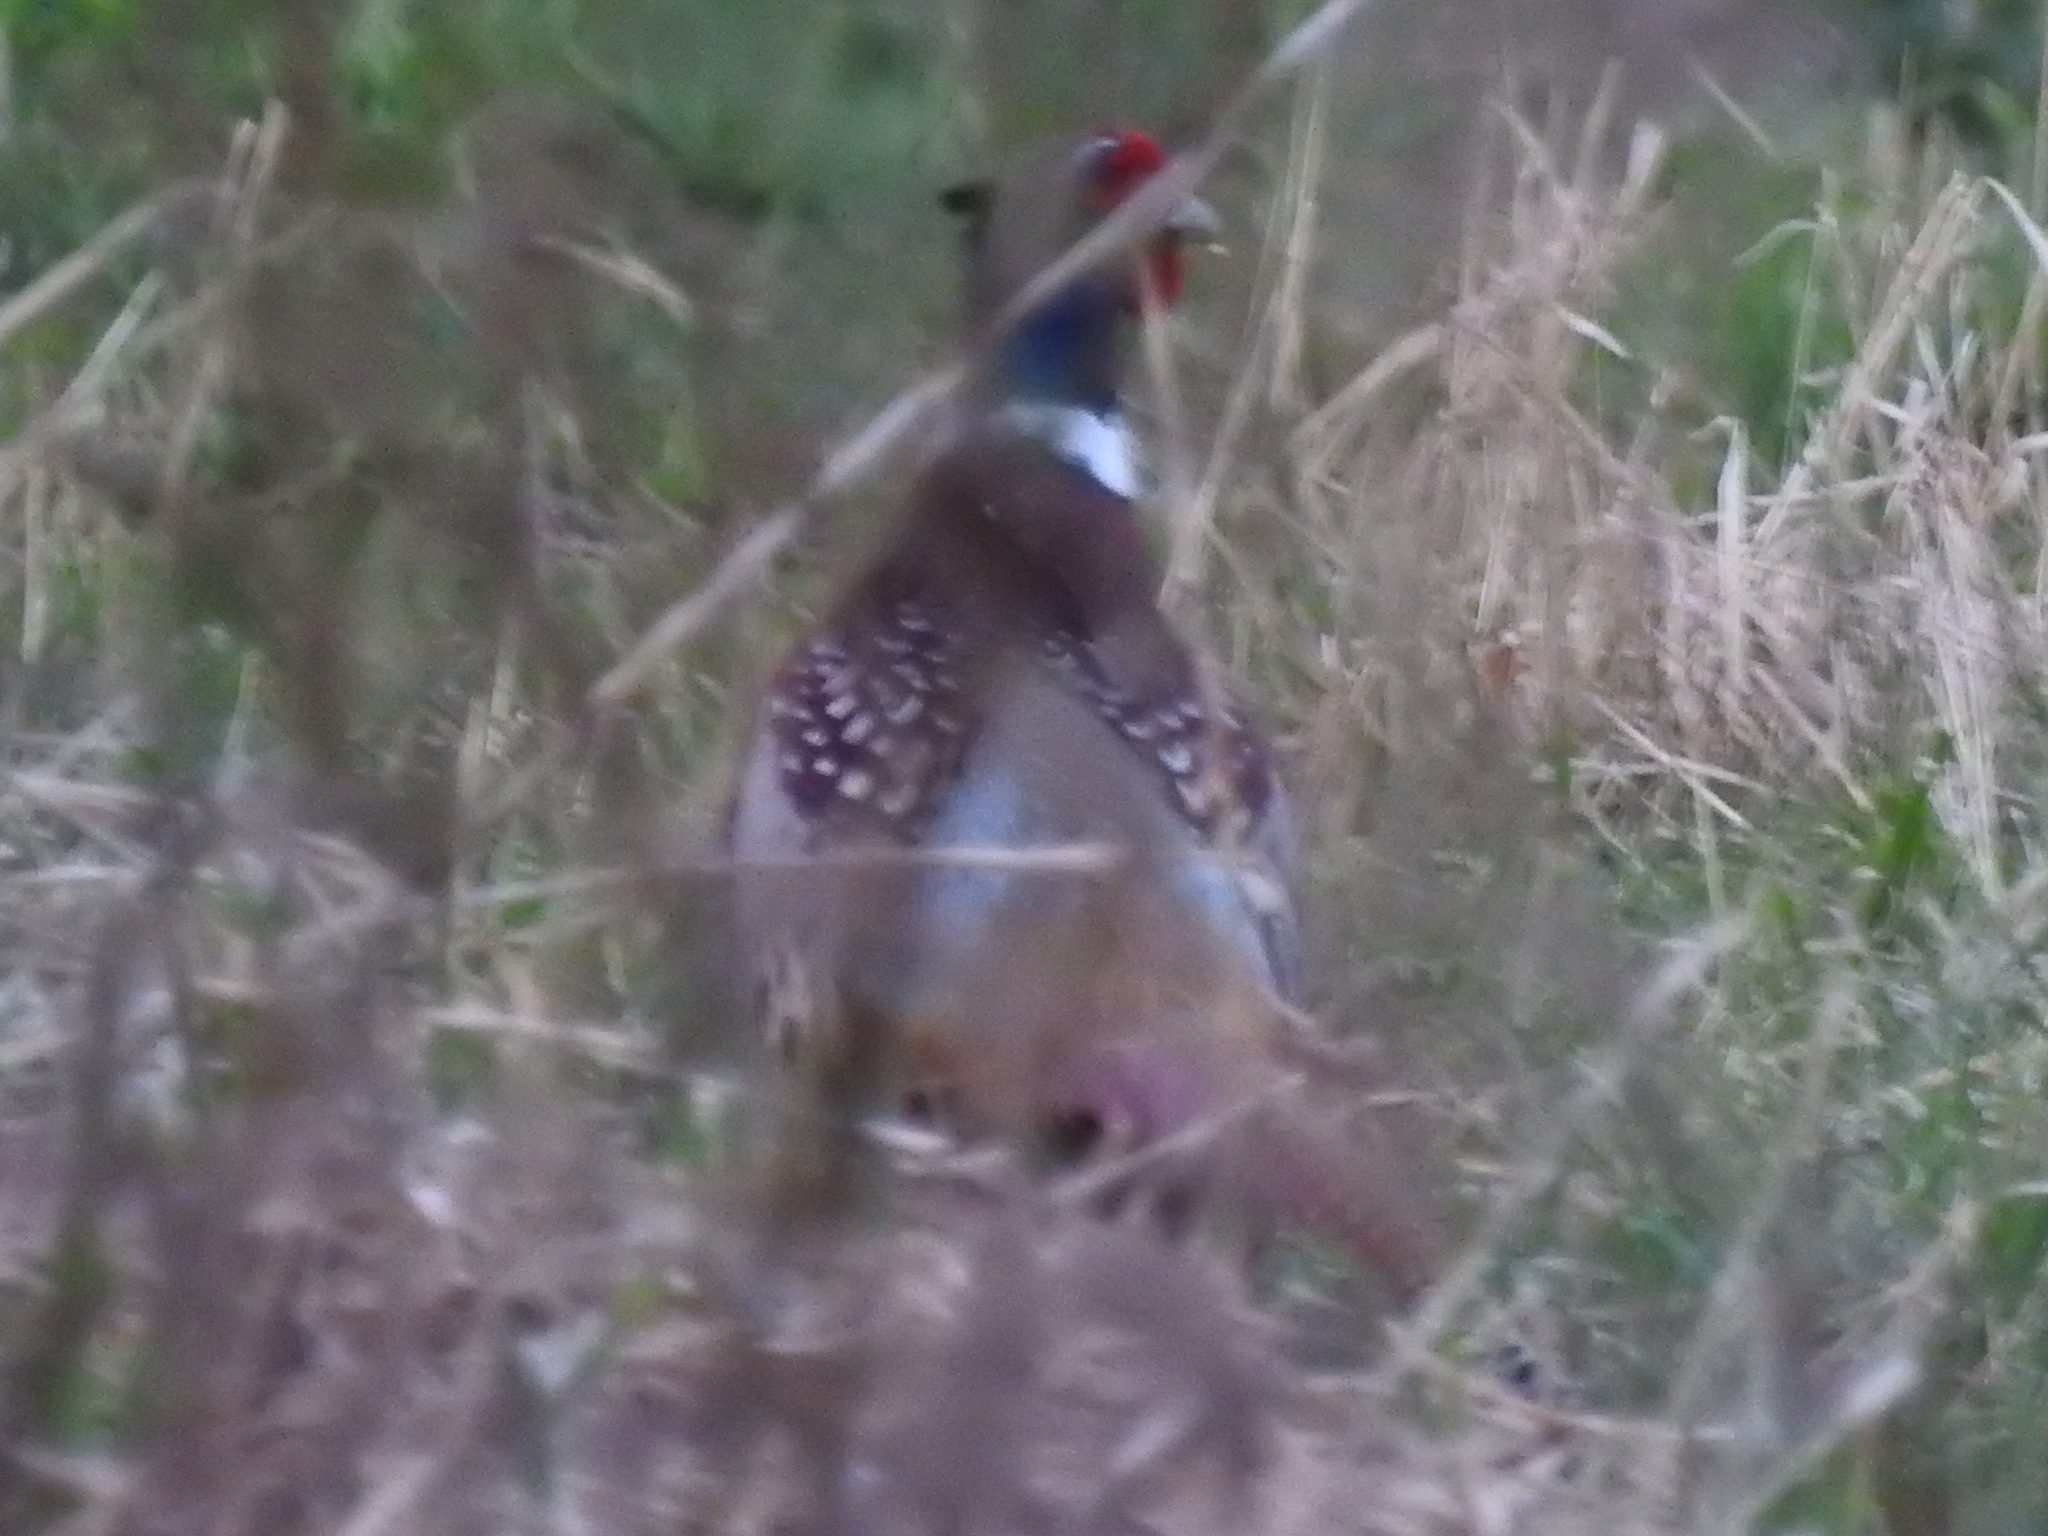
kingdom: Animalia
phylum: Chordata
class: Aves
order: Galliformes
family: Phasianidae
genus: Phasianus
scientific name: Phasianus colchicus
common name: Common pheasant
